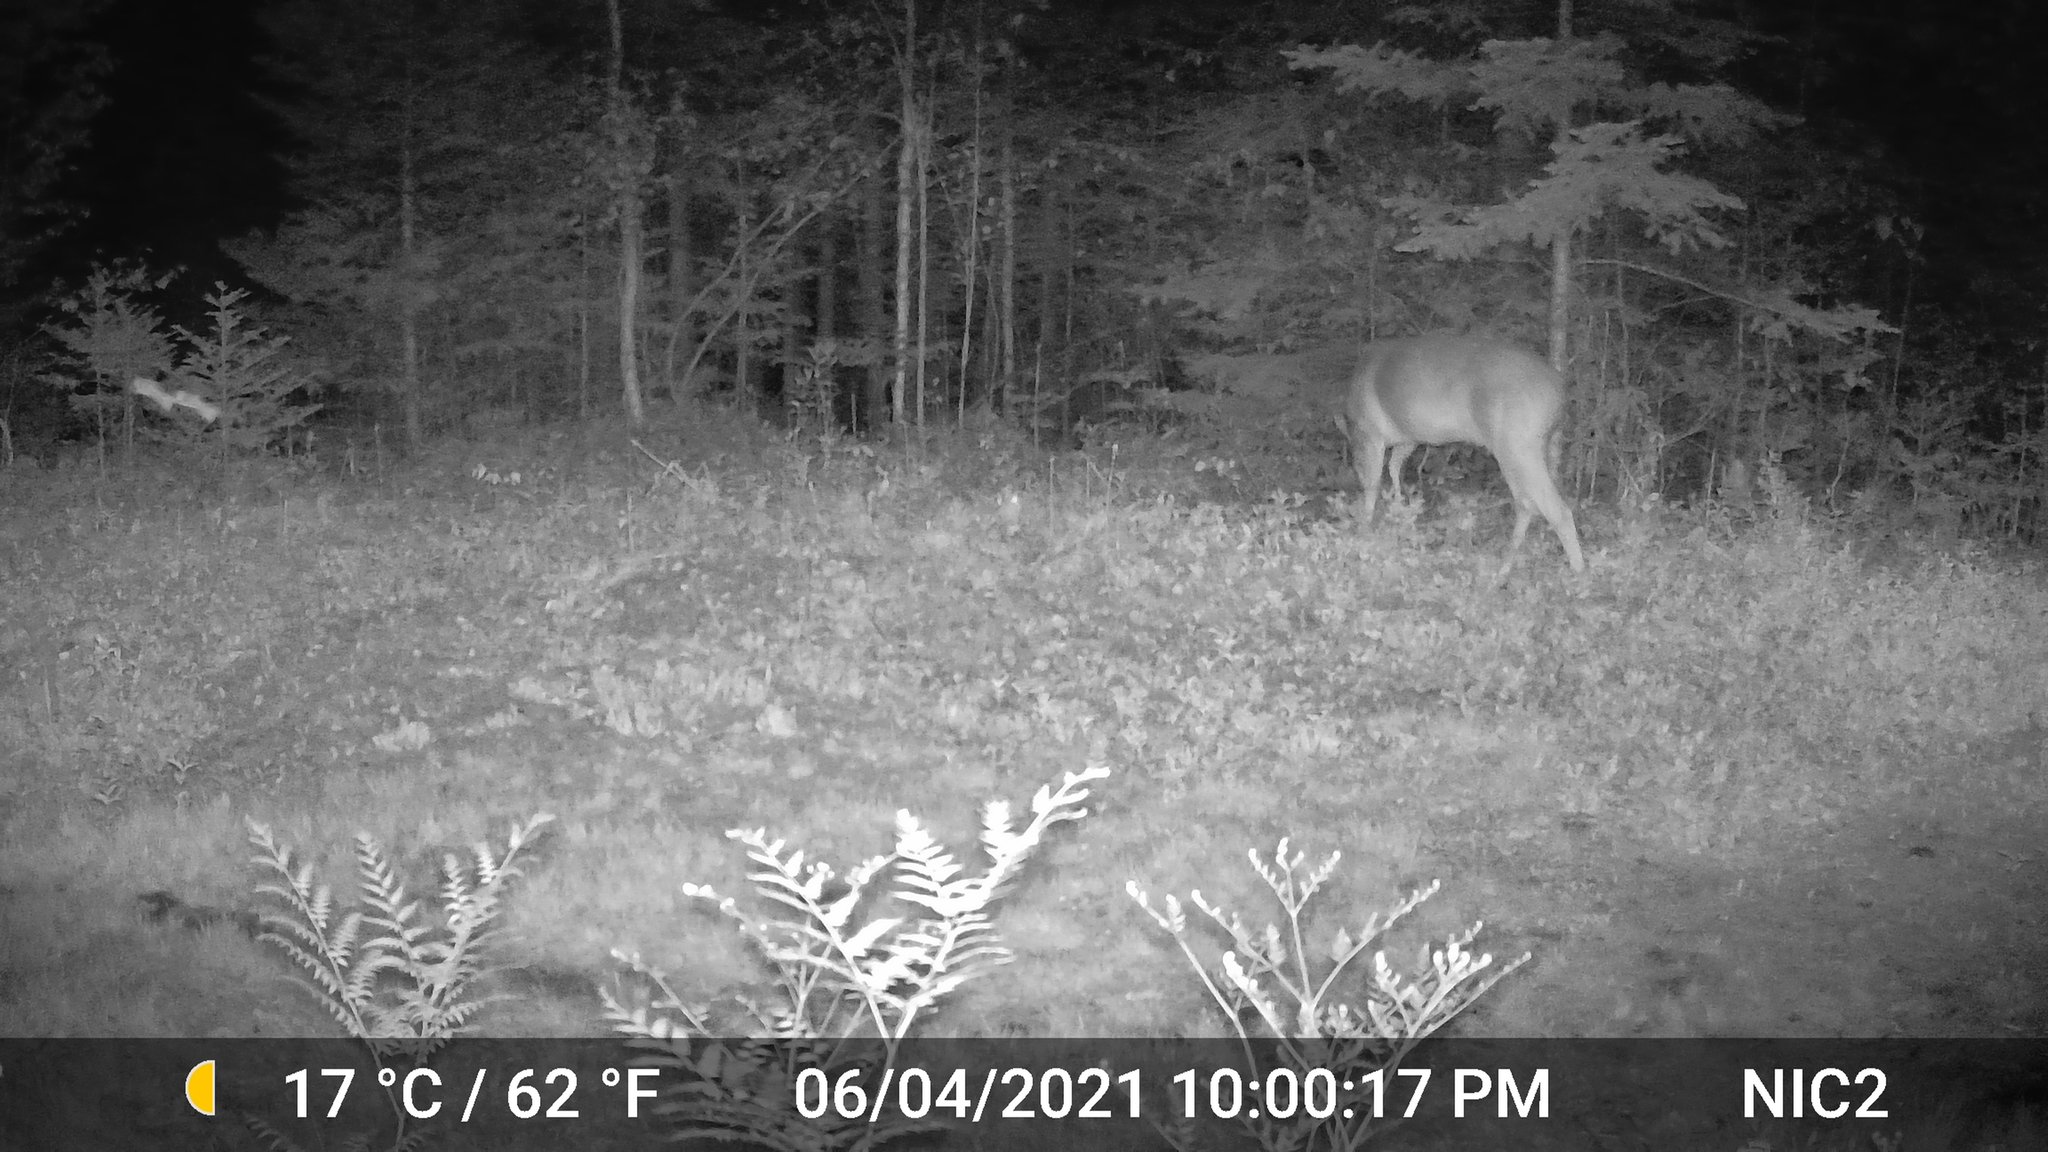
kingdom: Animalia
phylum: Chordata
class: Mammalia
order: Artiodactyla
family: Cervidae
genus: Odocoileus
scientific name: Odocoileus virginianus
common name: White-tailed deer
